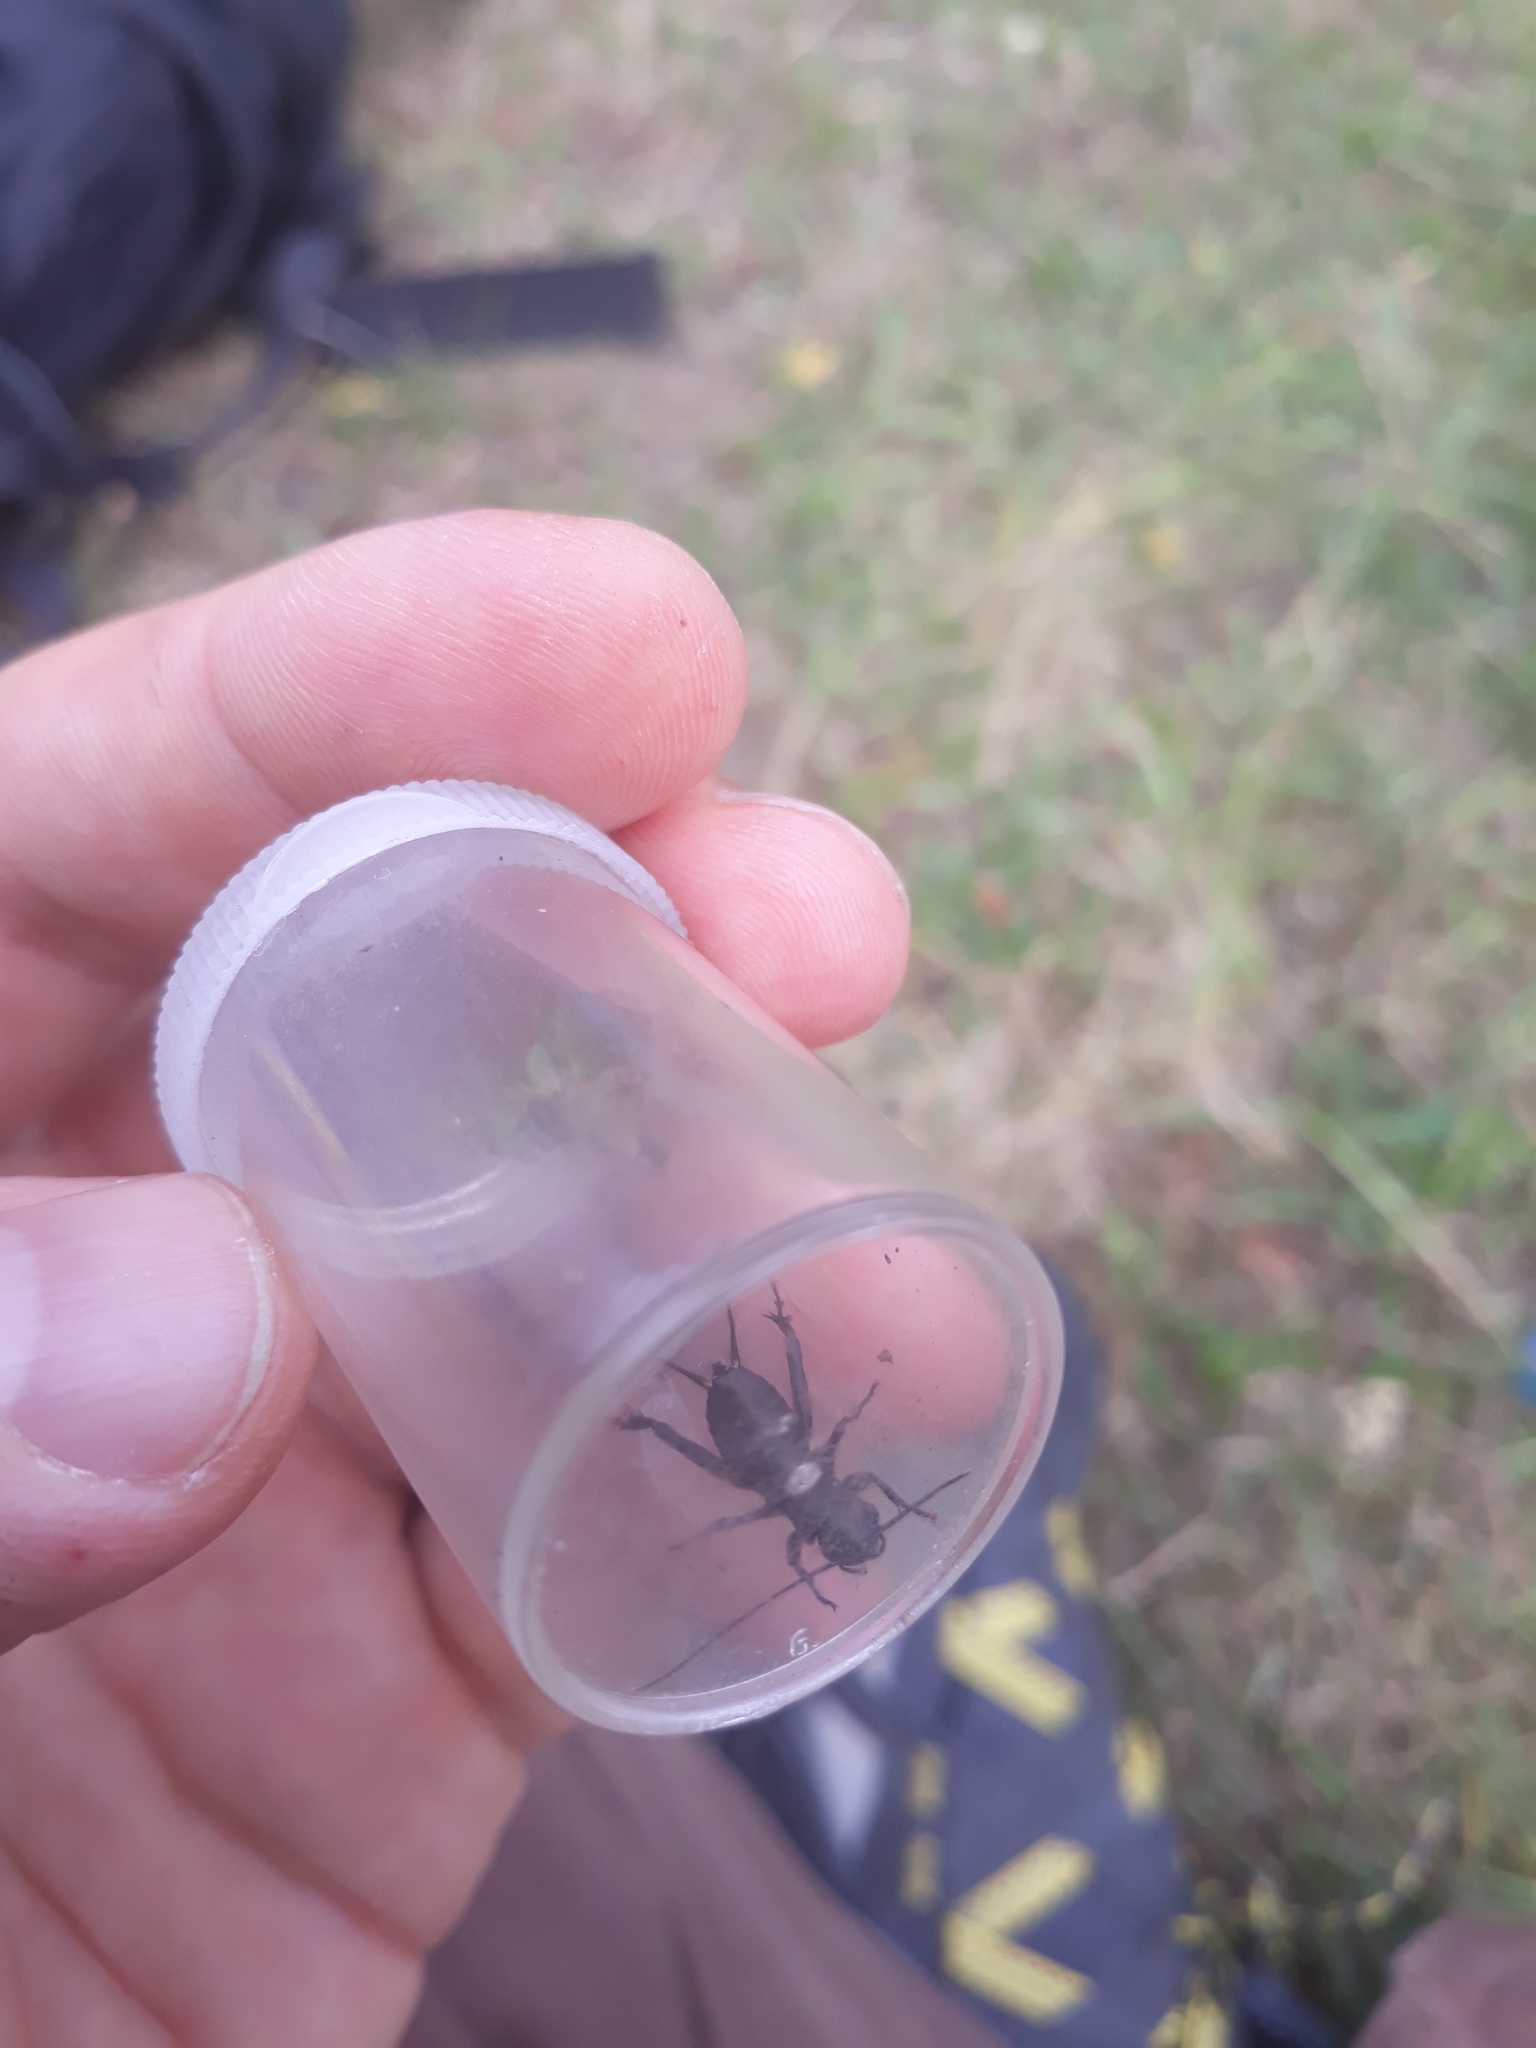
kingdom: Animalia
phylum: Arthropoda
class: Insecta
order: Orthoptera
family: Gryllidae
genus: Gryllus
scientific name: Gryllus campestris
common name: Field cricket
